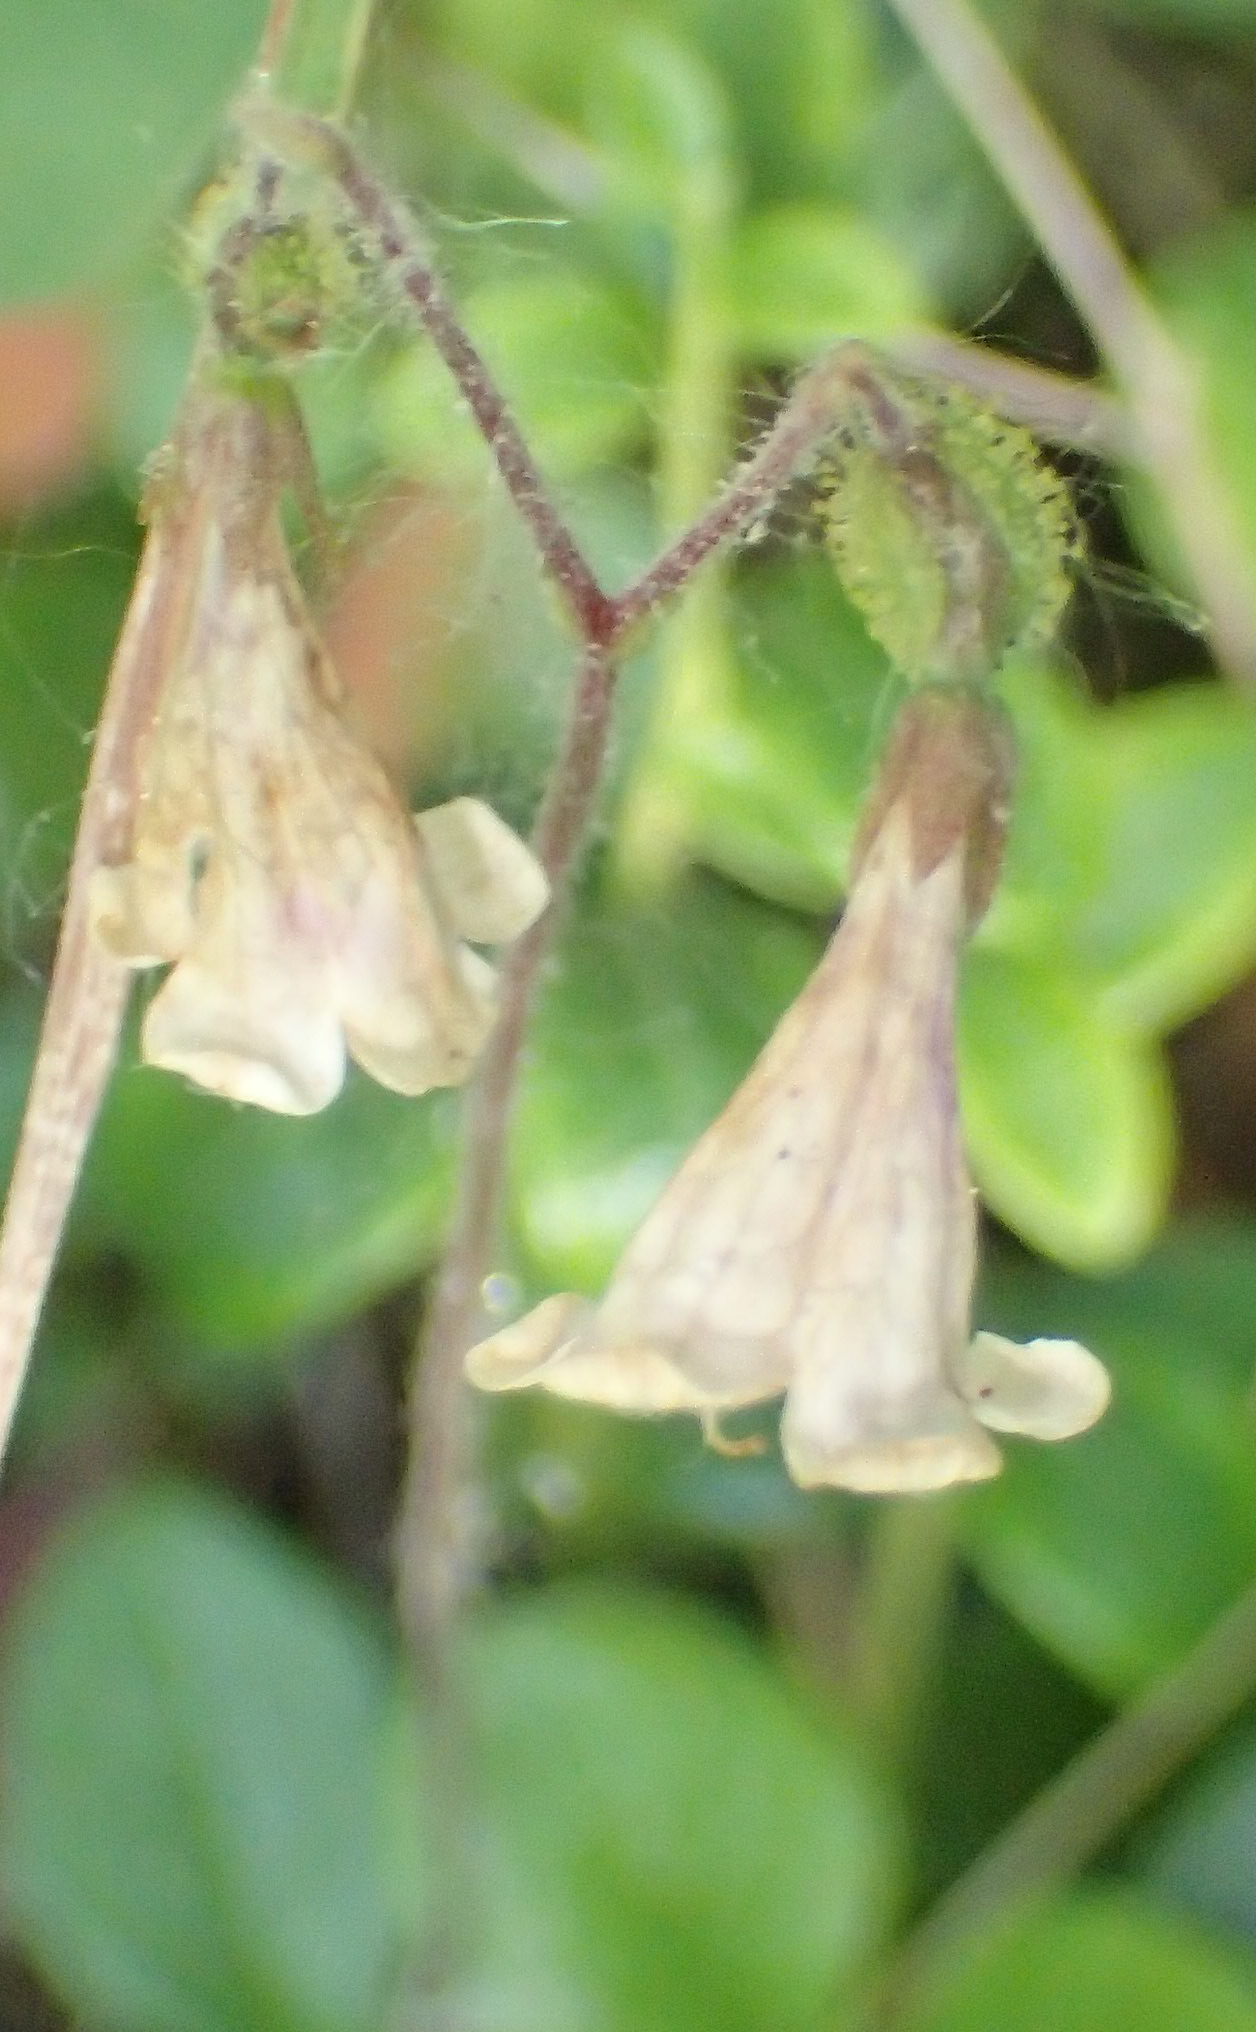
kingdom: Plantae
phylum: Tracheophyta
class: Magnoliopsida
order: Dipsacales
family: Caprifoliaceae
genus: Linnaea
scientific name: Linnaea borealis
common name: Twinflower
